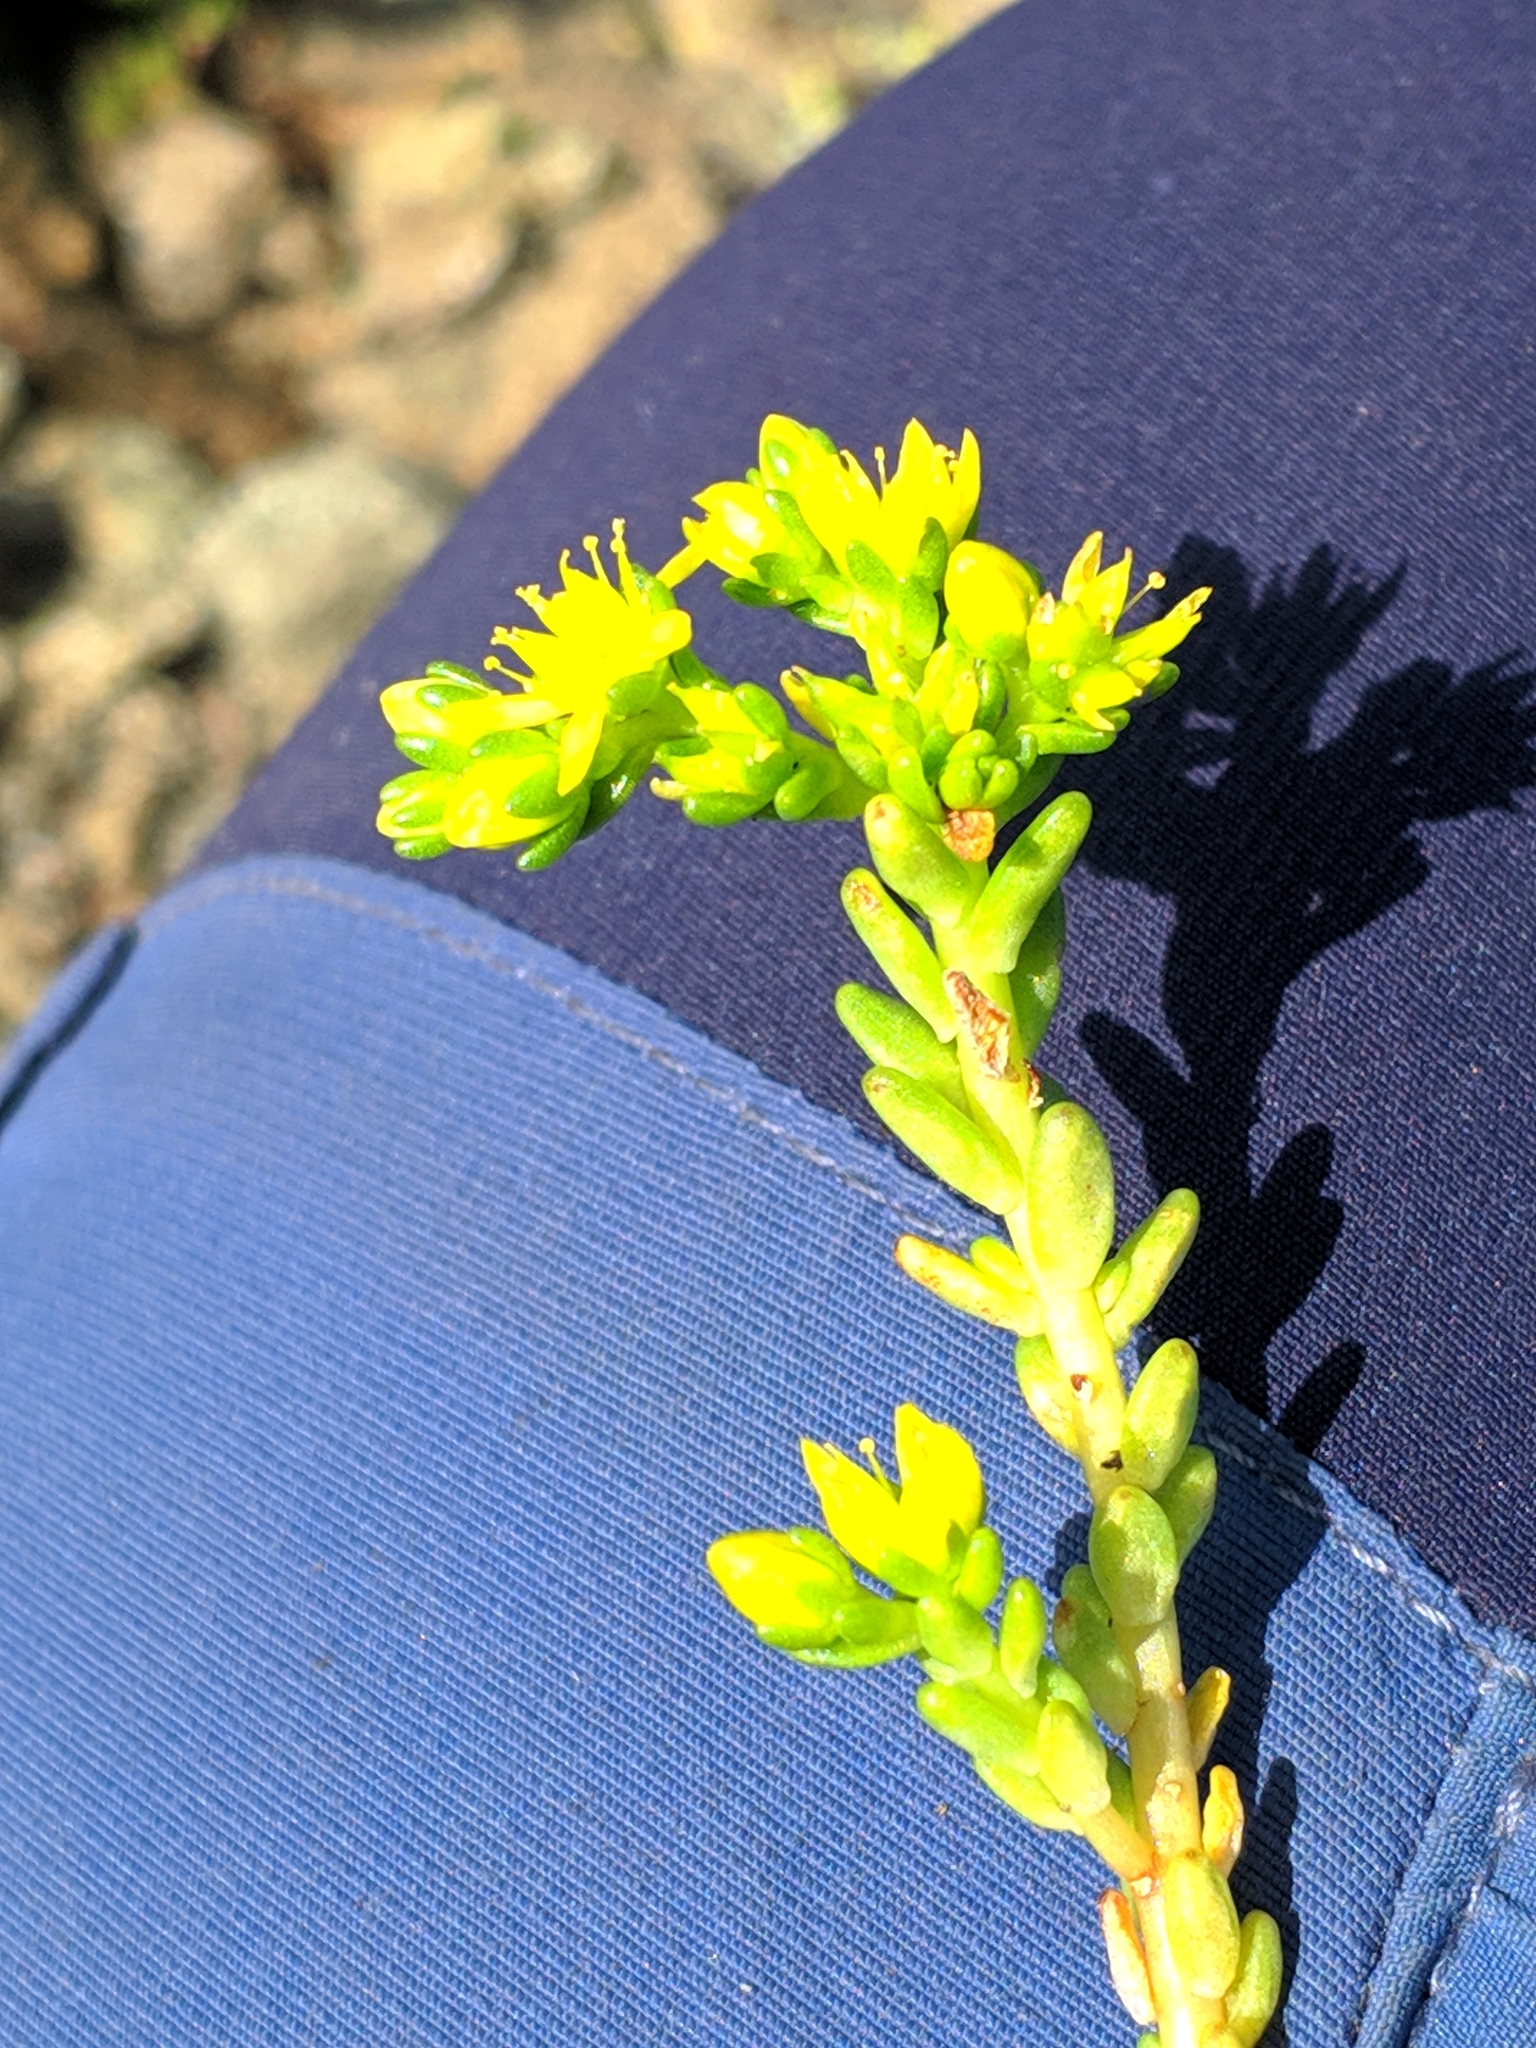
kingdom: Plantae
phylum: Tracheophyta
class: Magnoliopsida
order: Saxifragales
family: Crassulaceae
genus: Sedum
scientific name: Sedum acre
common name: Biting stonecrop
